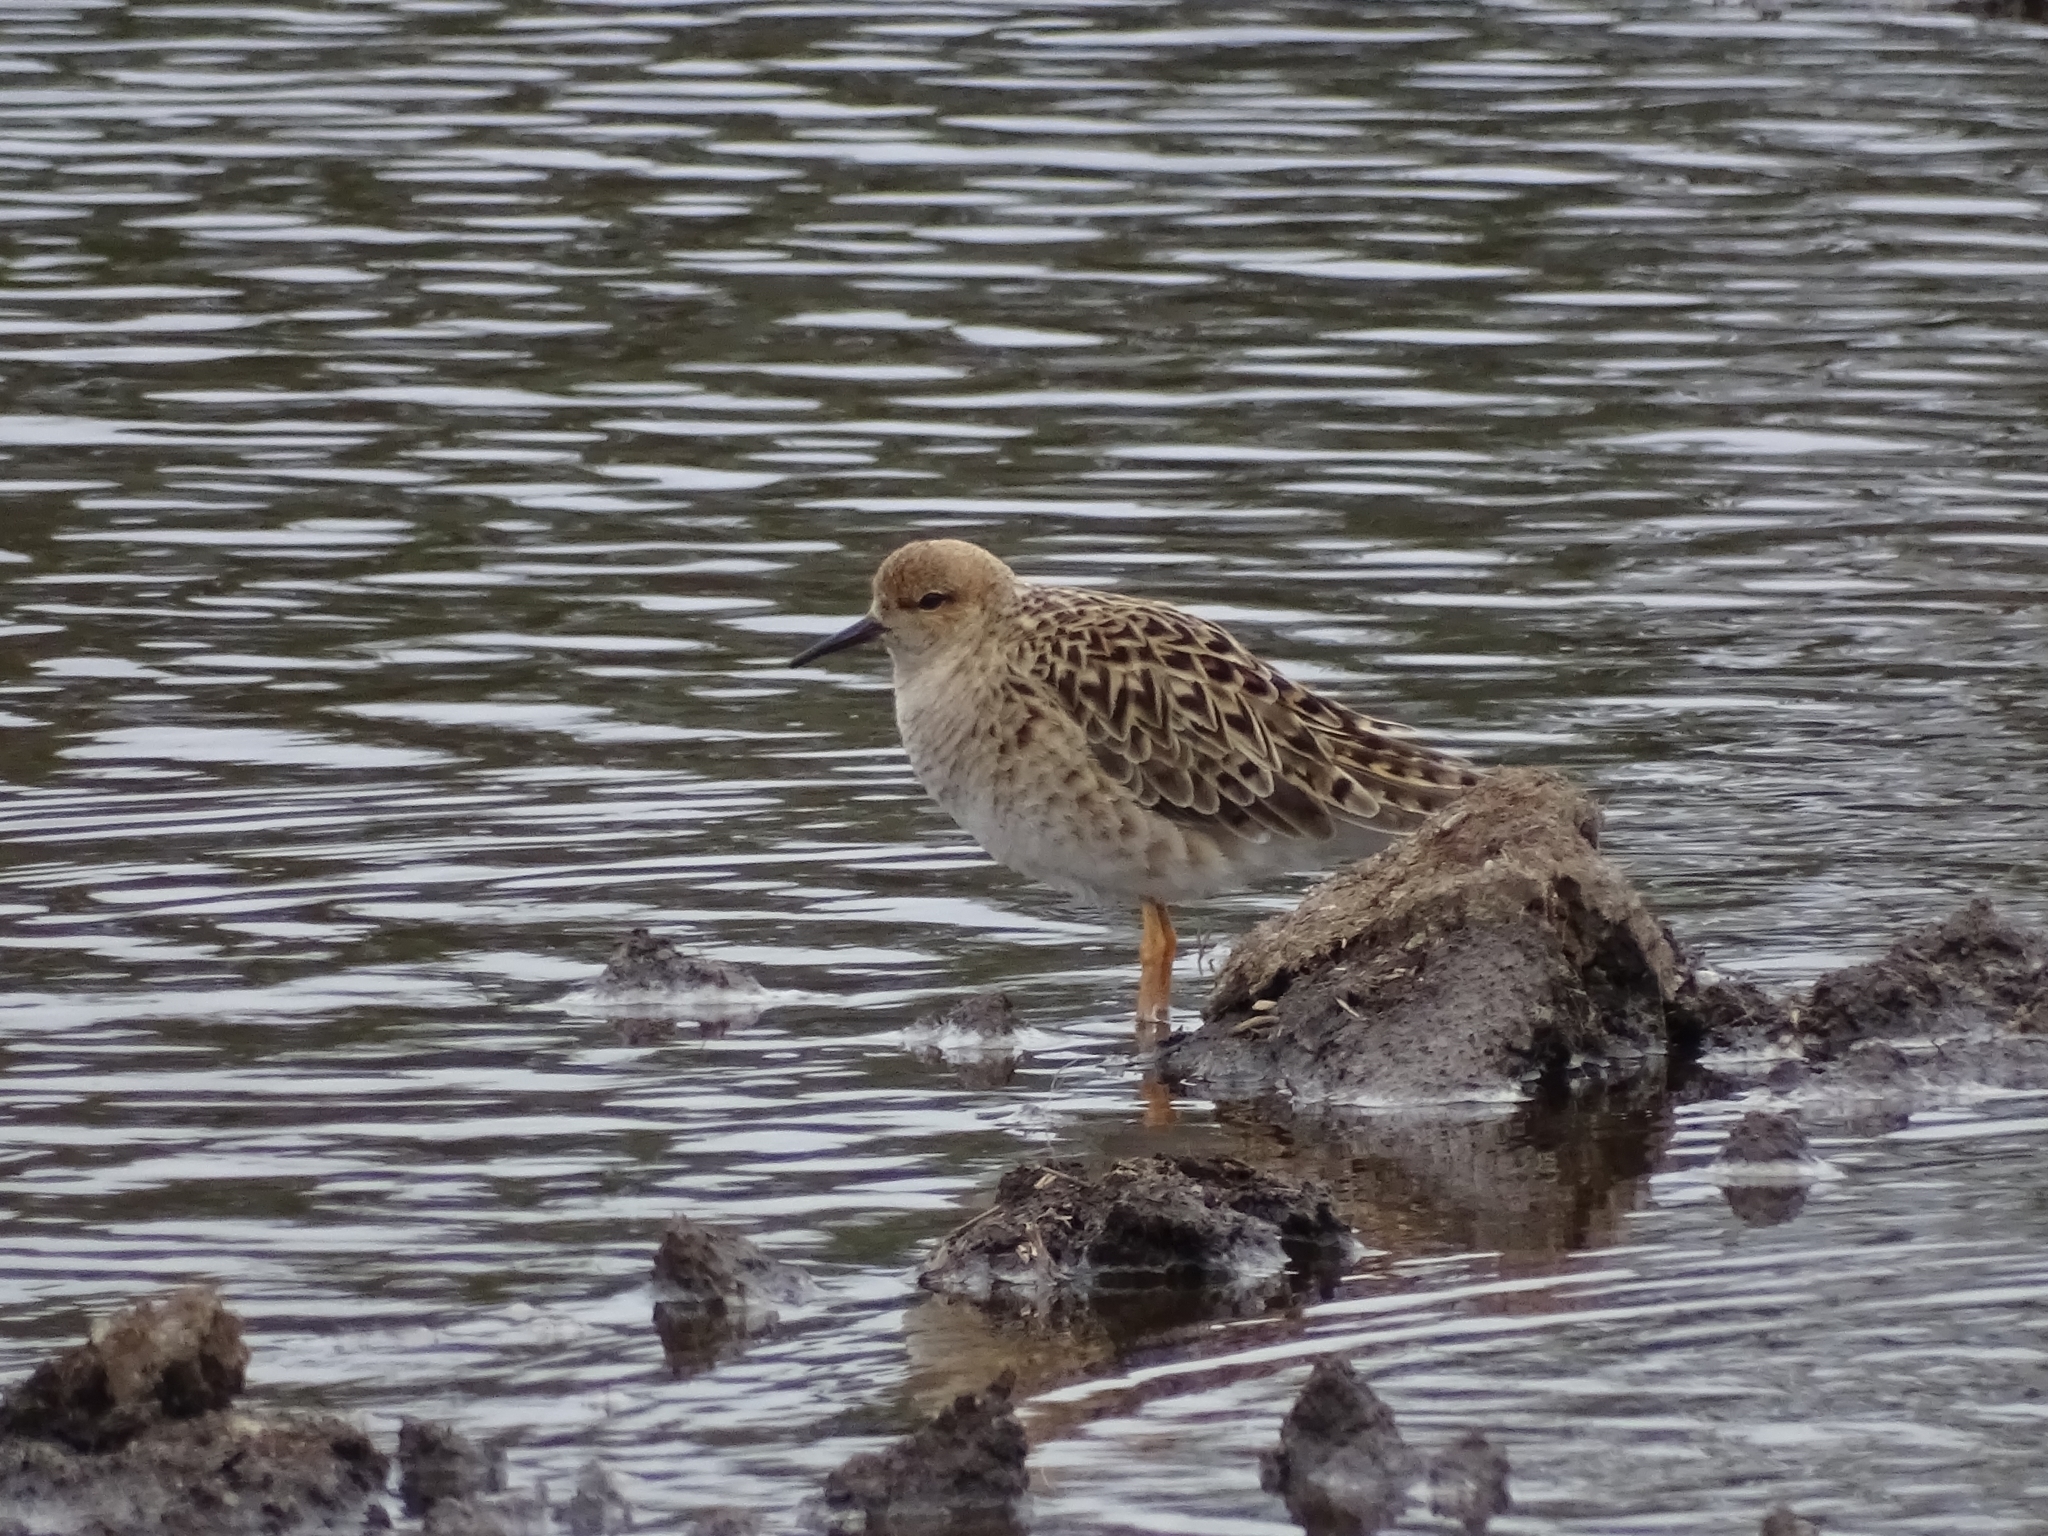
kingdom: Animalia
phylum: Chordata
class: Aves
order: Charadriiformes
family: Scolopacidae
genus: Calidris
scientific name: Calidris pugnax
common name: Ruff
